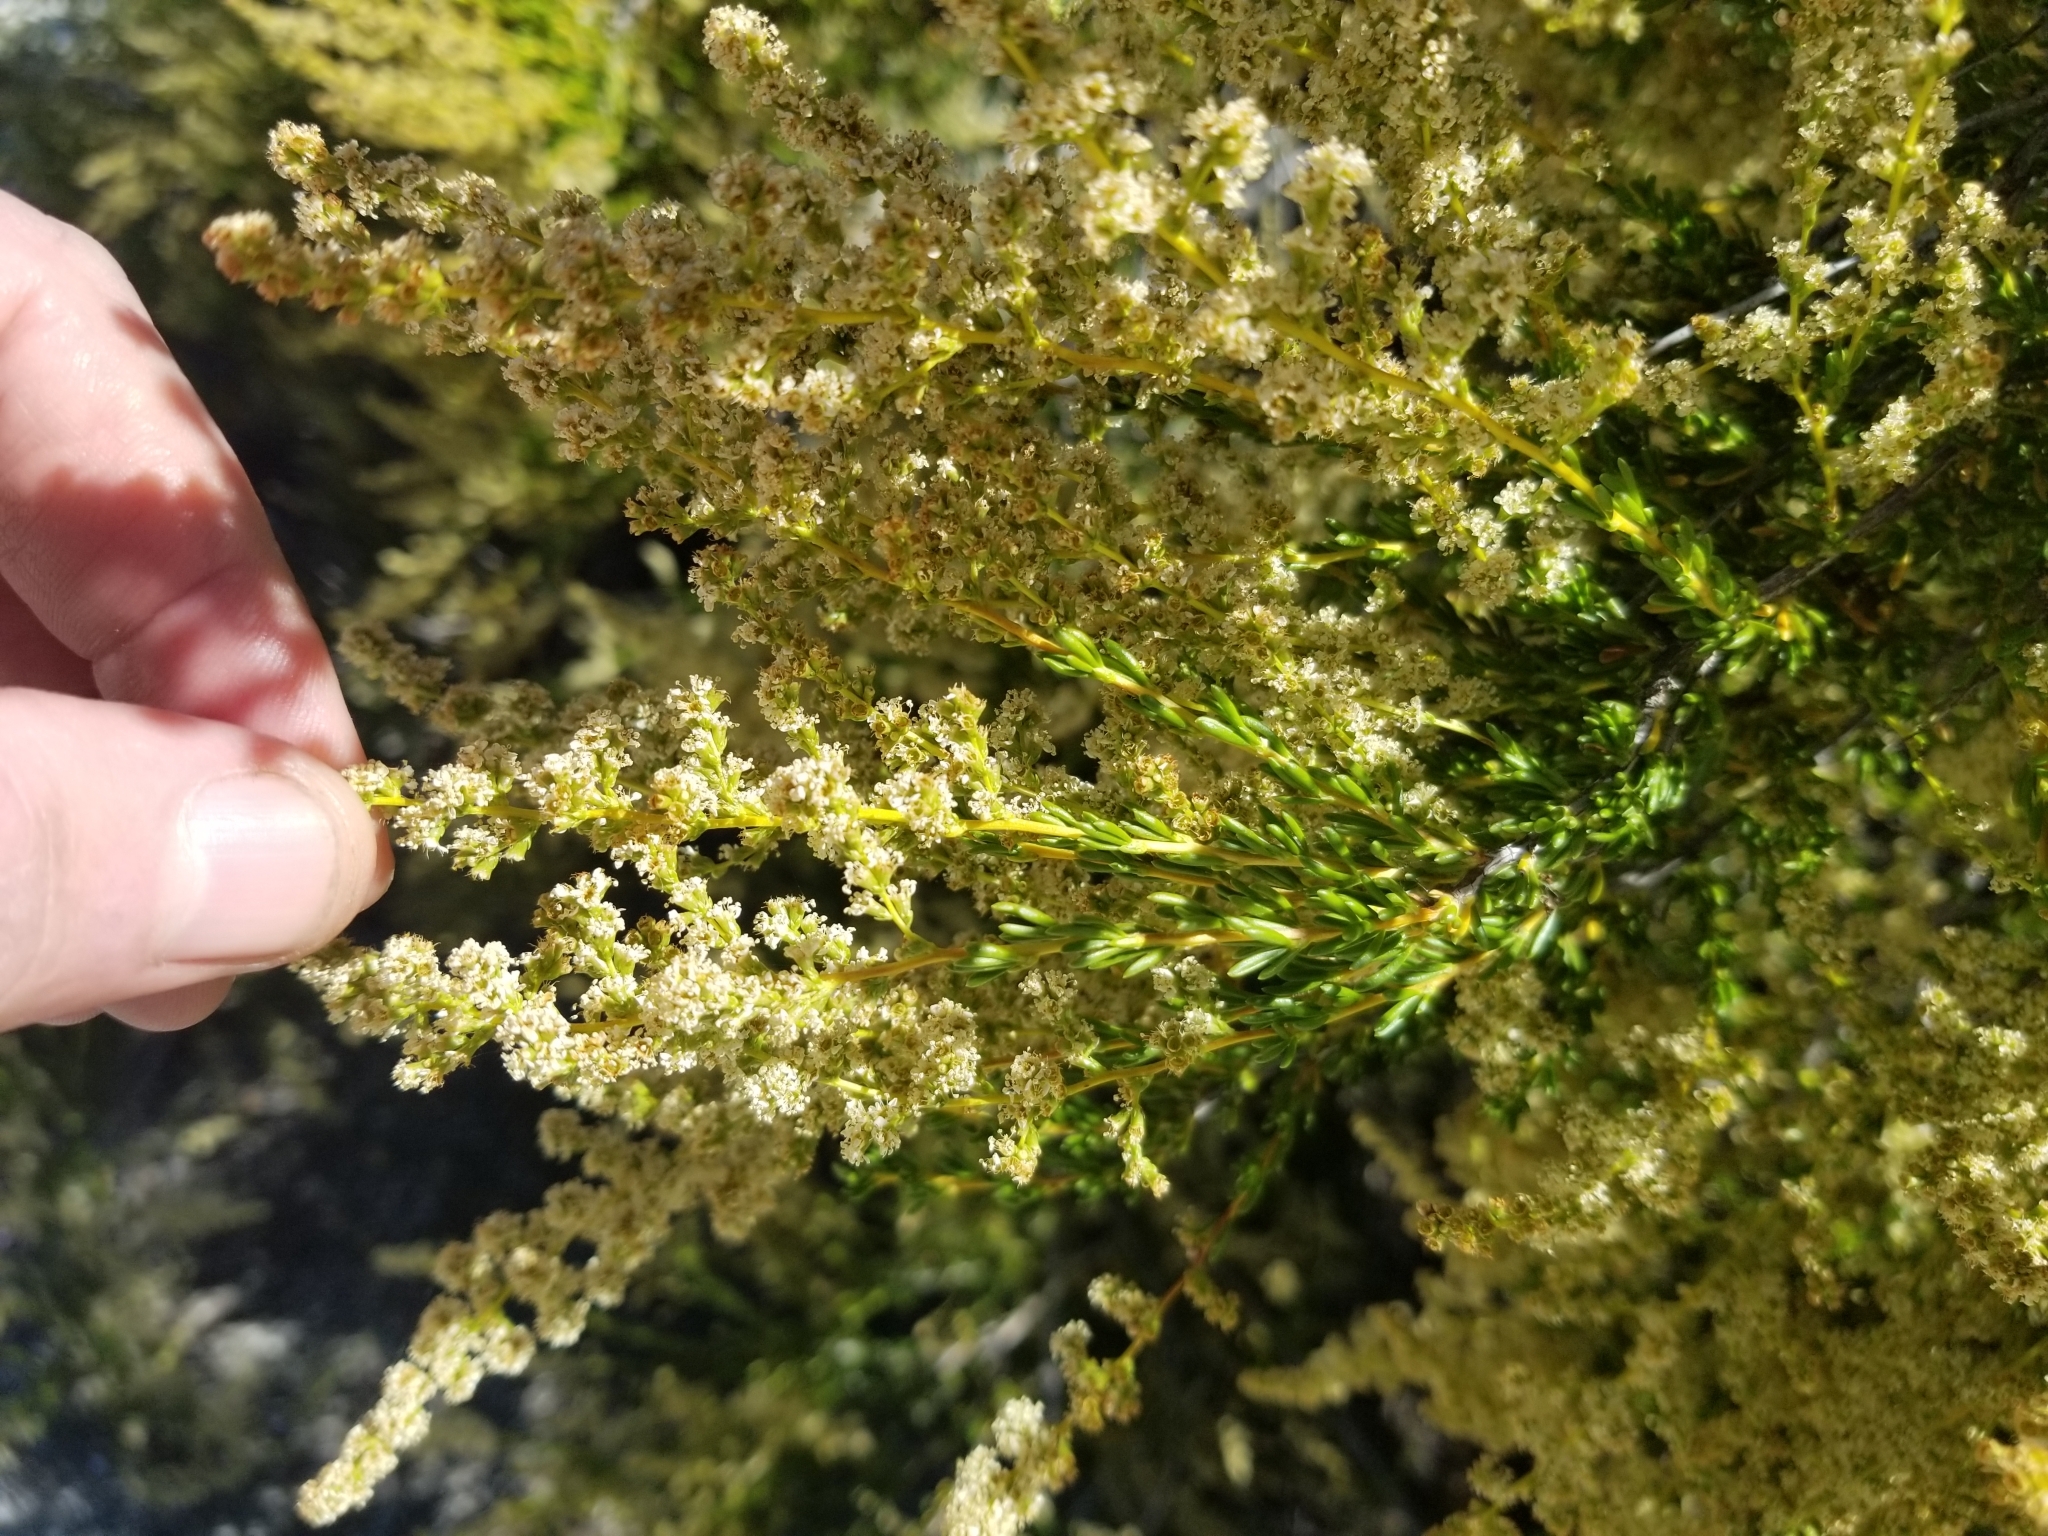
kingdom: Plantae
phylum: Tracheophyta
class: Magnoliopsida
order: Rosales
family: Rosaceae
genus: Adenostoma
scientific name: Adenostoma fasciculatum
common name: Chamise
